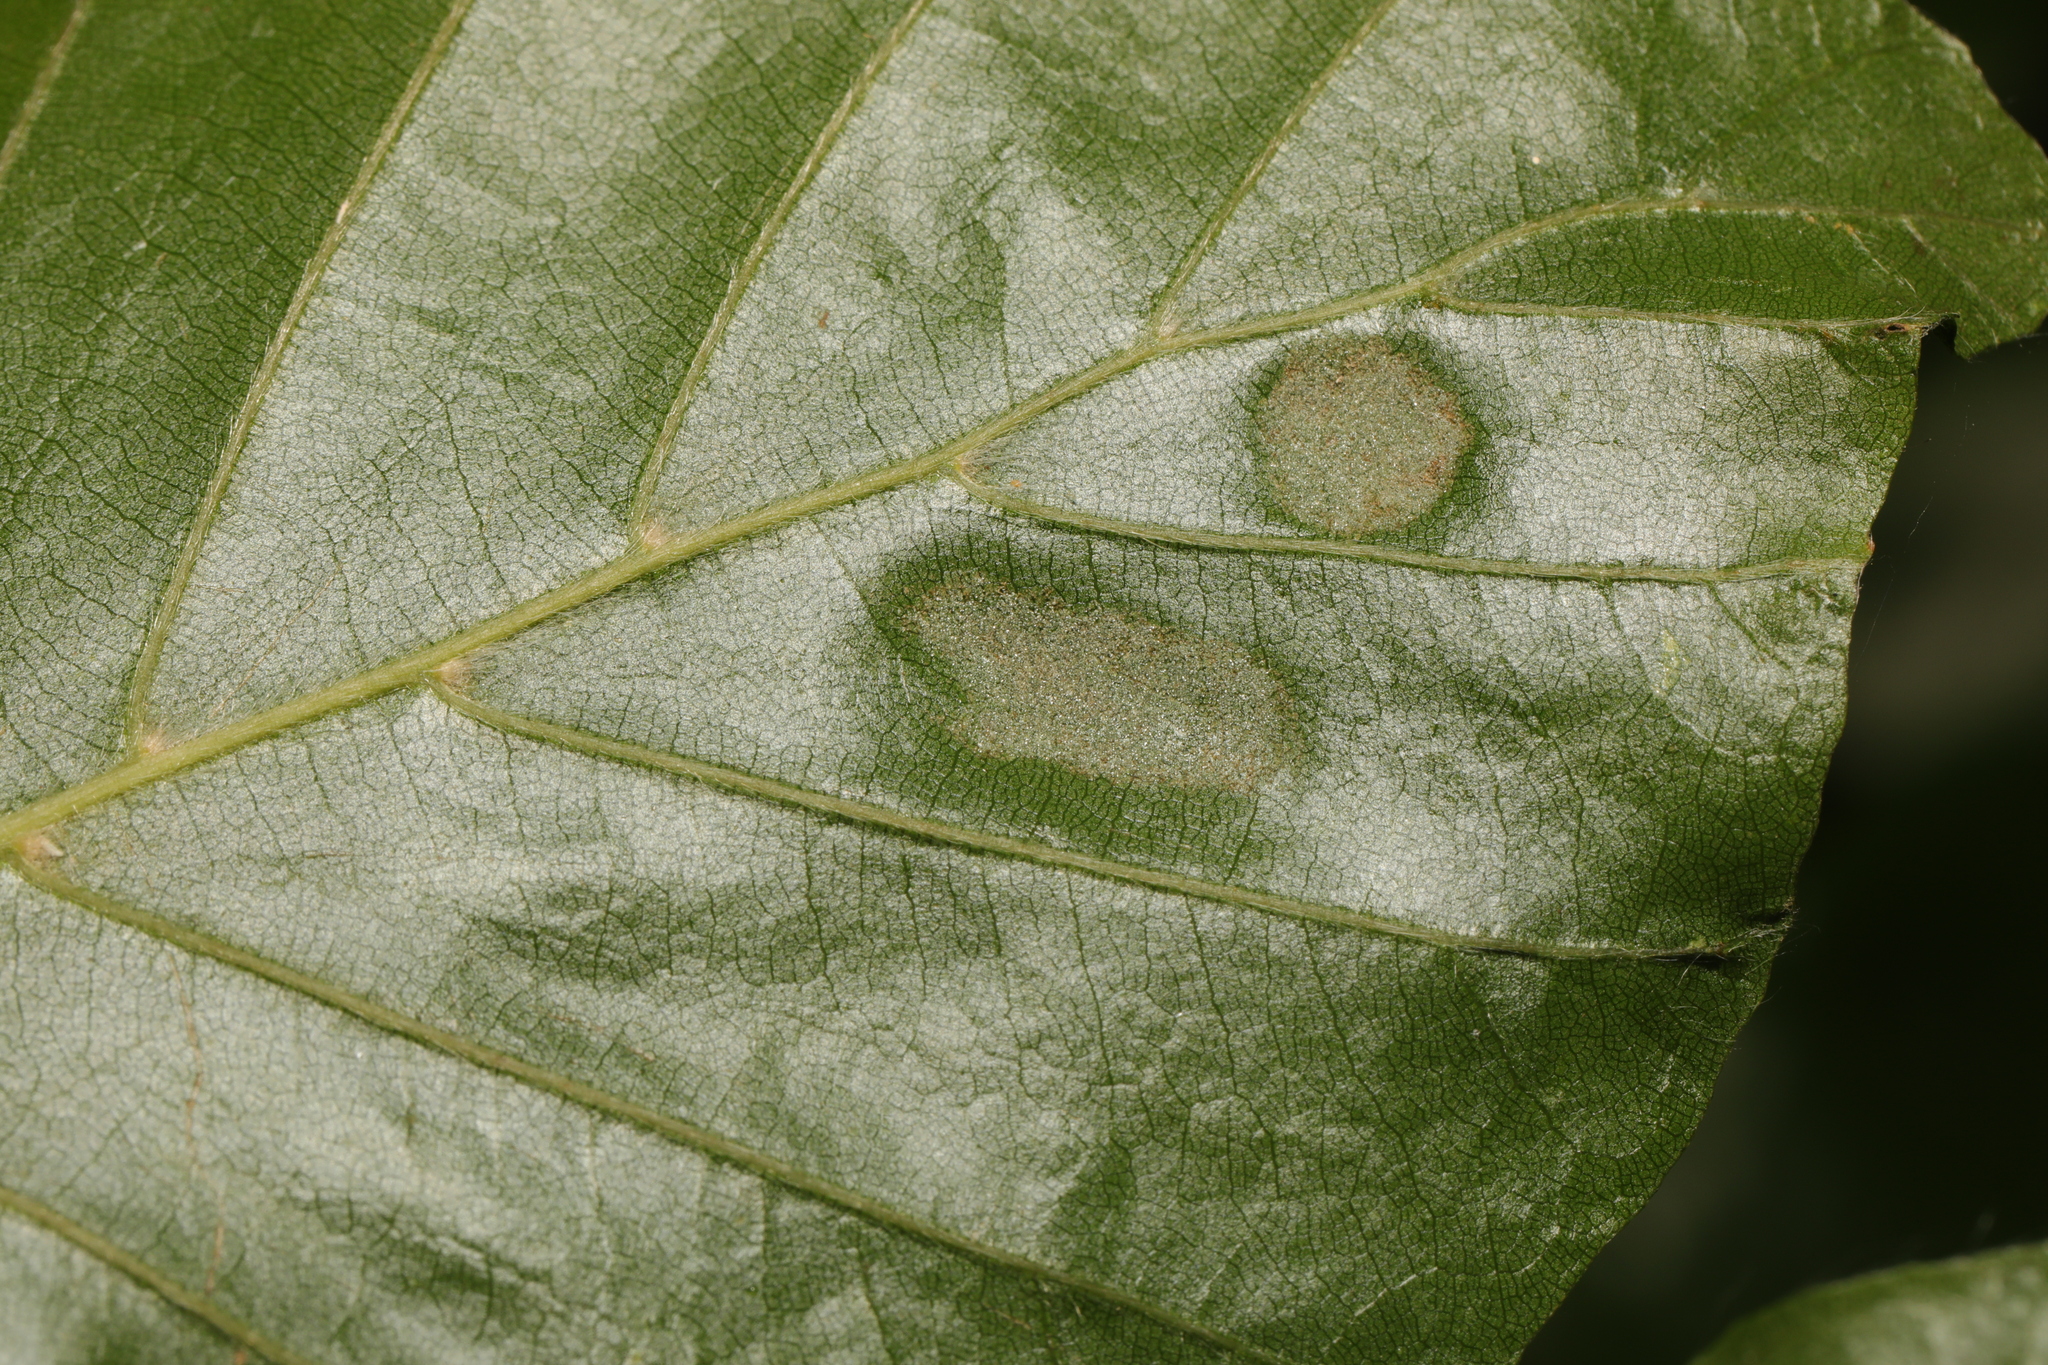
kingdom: Animalia
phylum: Arthropoda
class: Arachnida
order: Trombidiformes
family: Eriophyidae
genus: Aceria
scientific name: Aceria nervisequa
